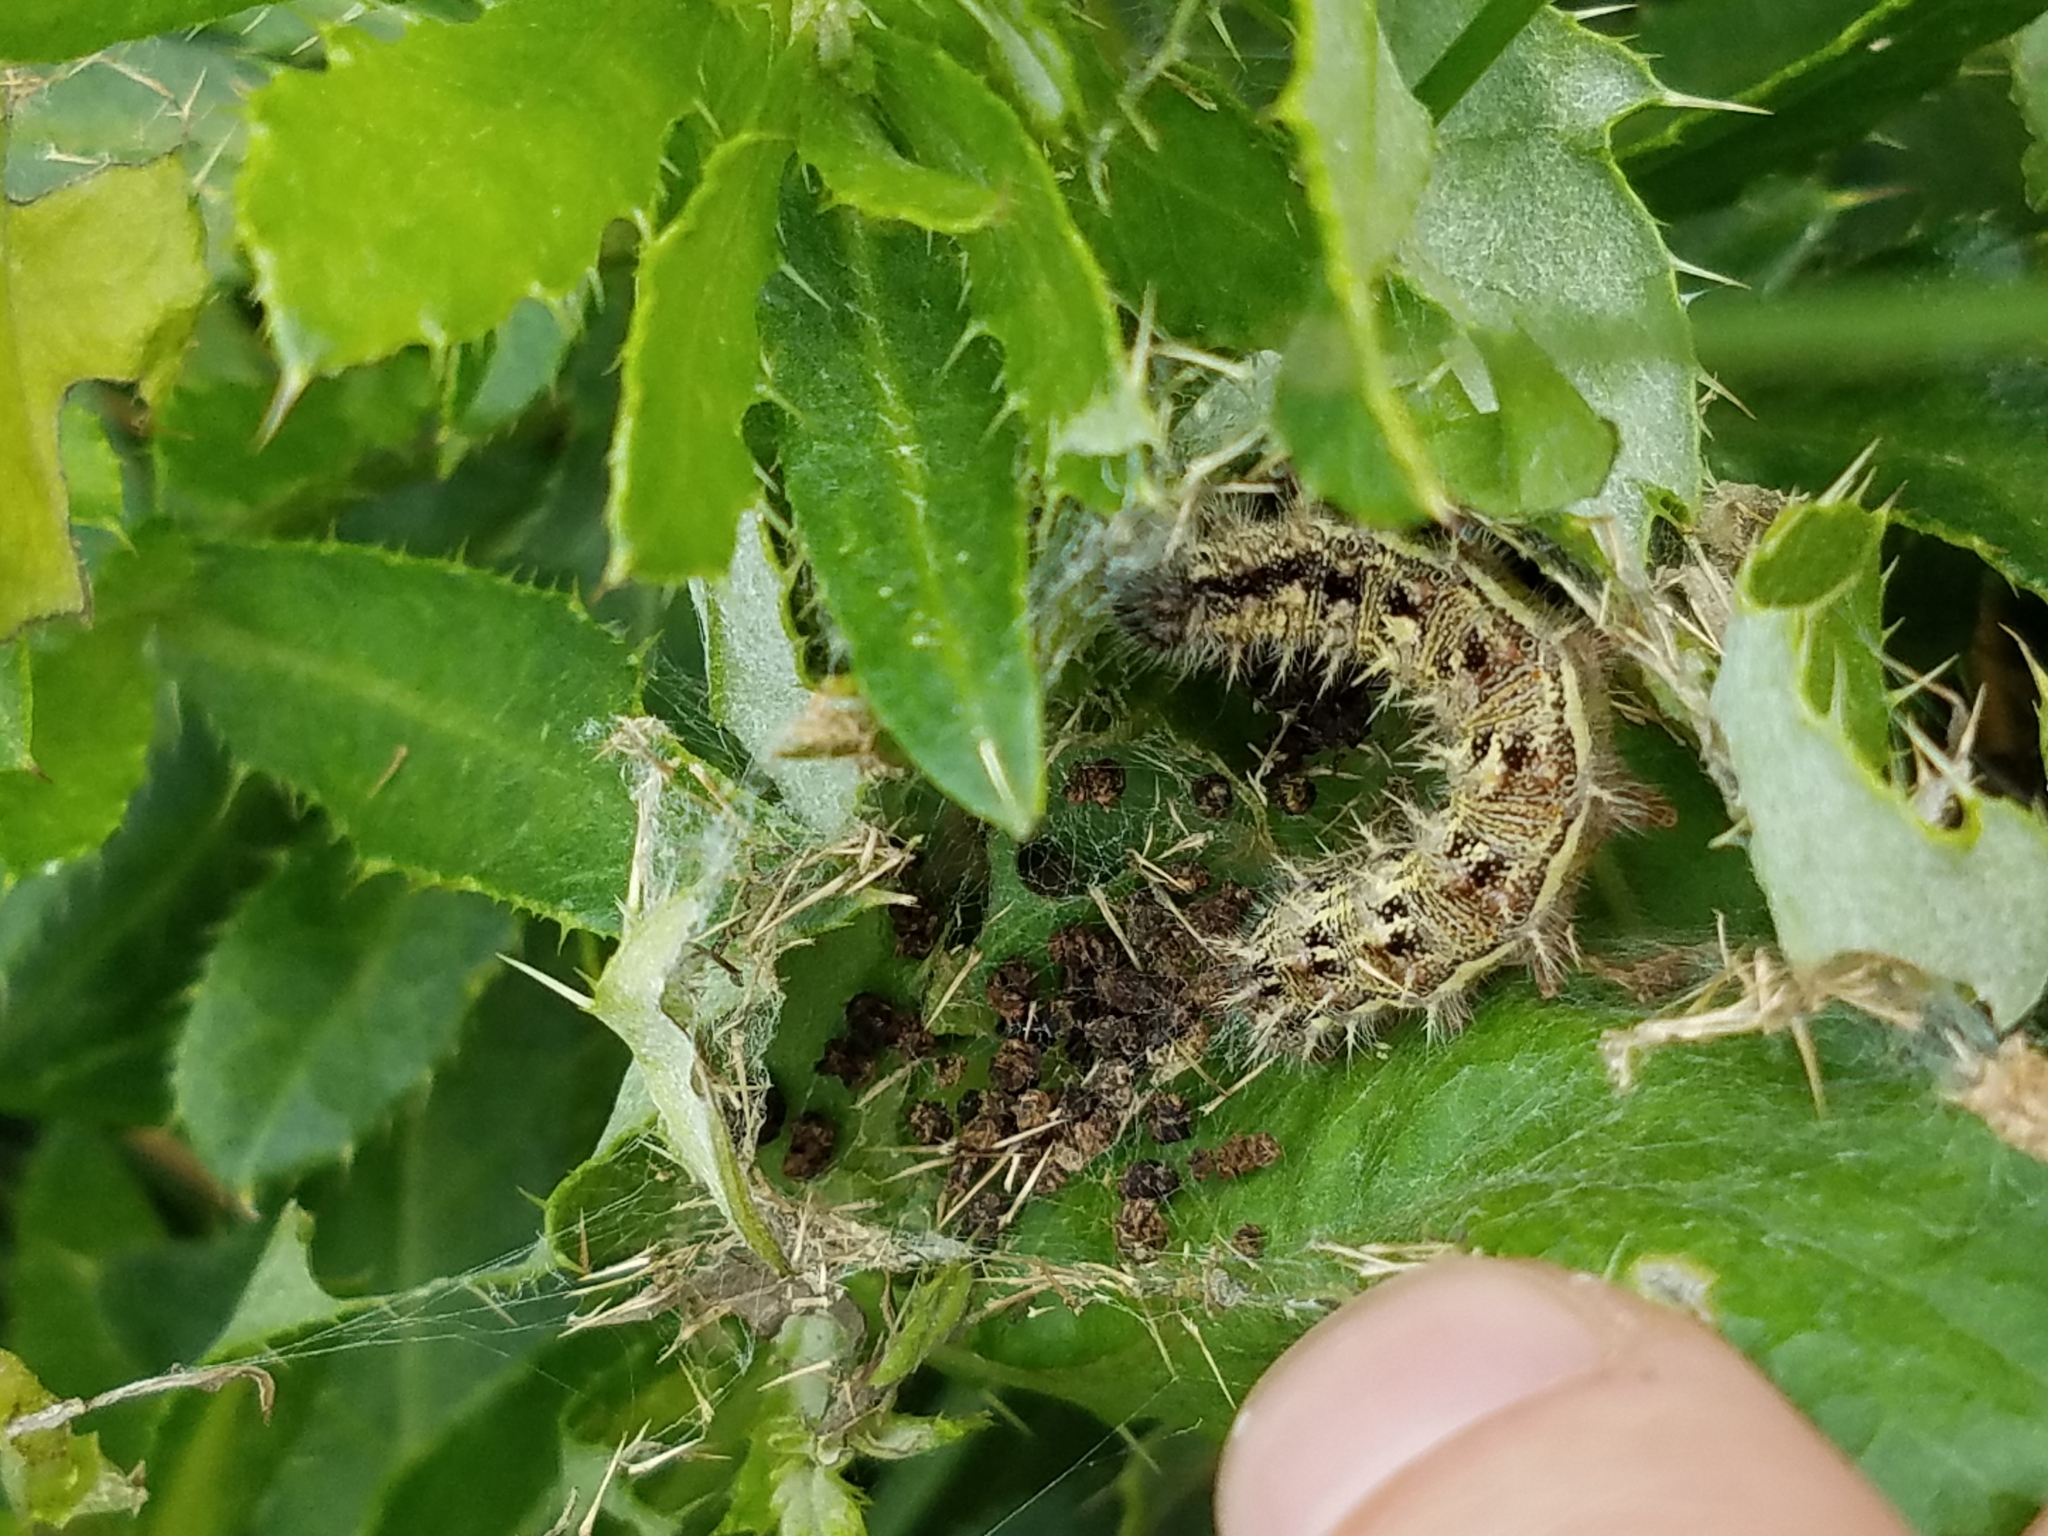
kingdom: Animalia
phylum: Arthropoda
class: Insecta
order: Lepidoptera
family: Nymphalidae
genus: Vanessa
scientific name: Vanessa cardui
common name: Painted lady
